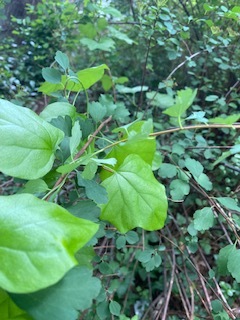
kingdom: Plantae
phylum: Tracheophyta
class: Magnoliopsida
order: Ranunculales
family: Menispermaceae
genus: Cocculus
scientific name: Cocculus carolinus
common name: Carolina moonseed
